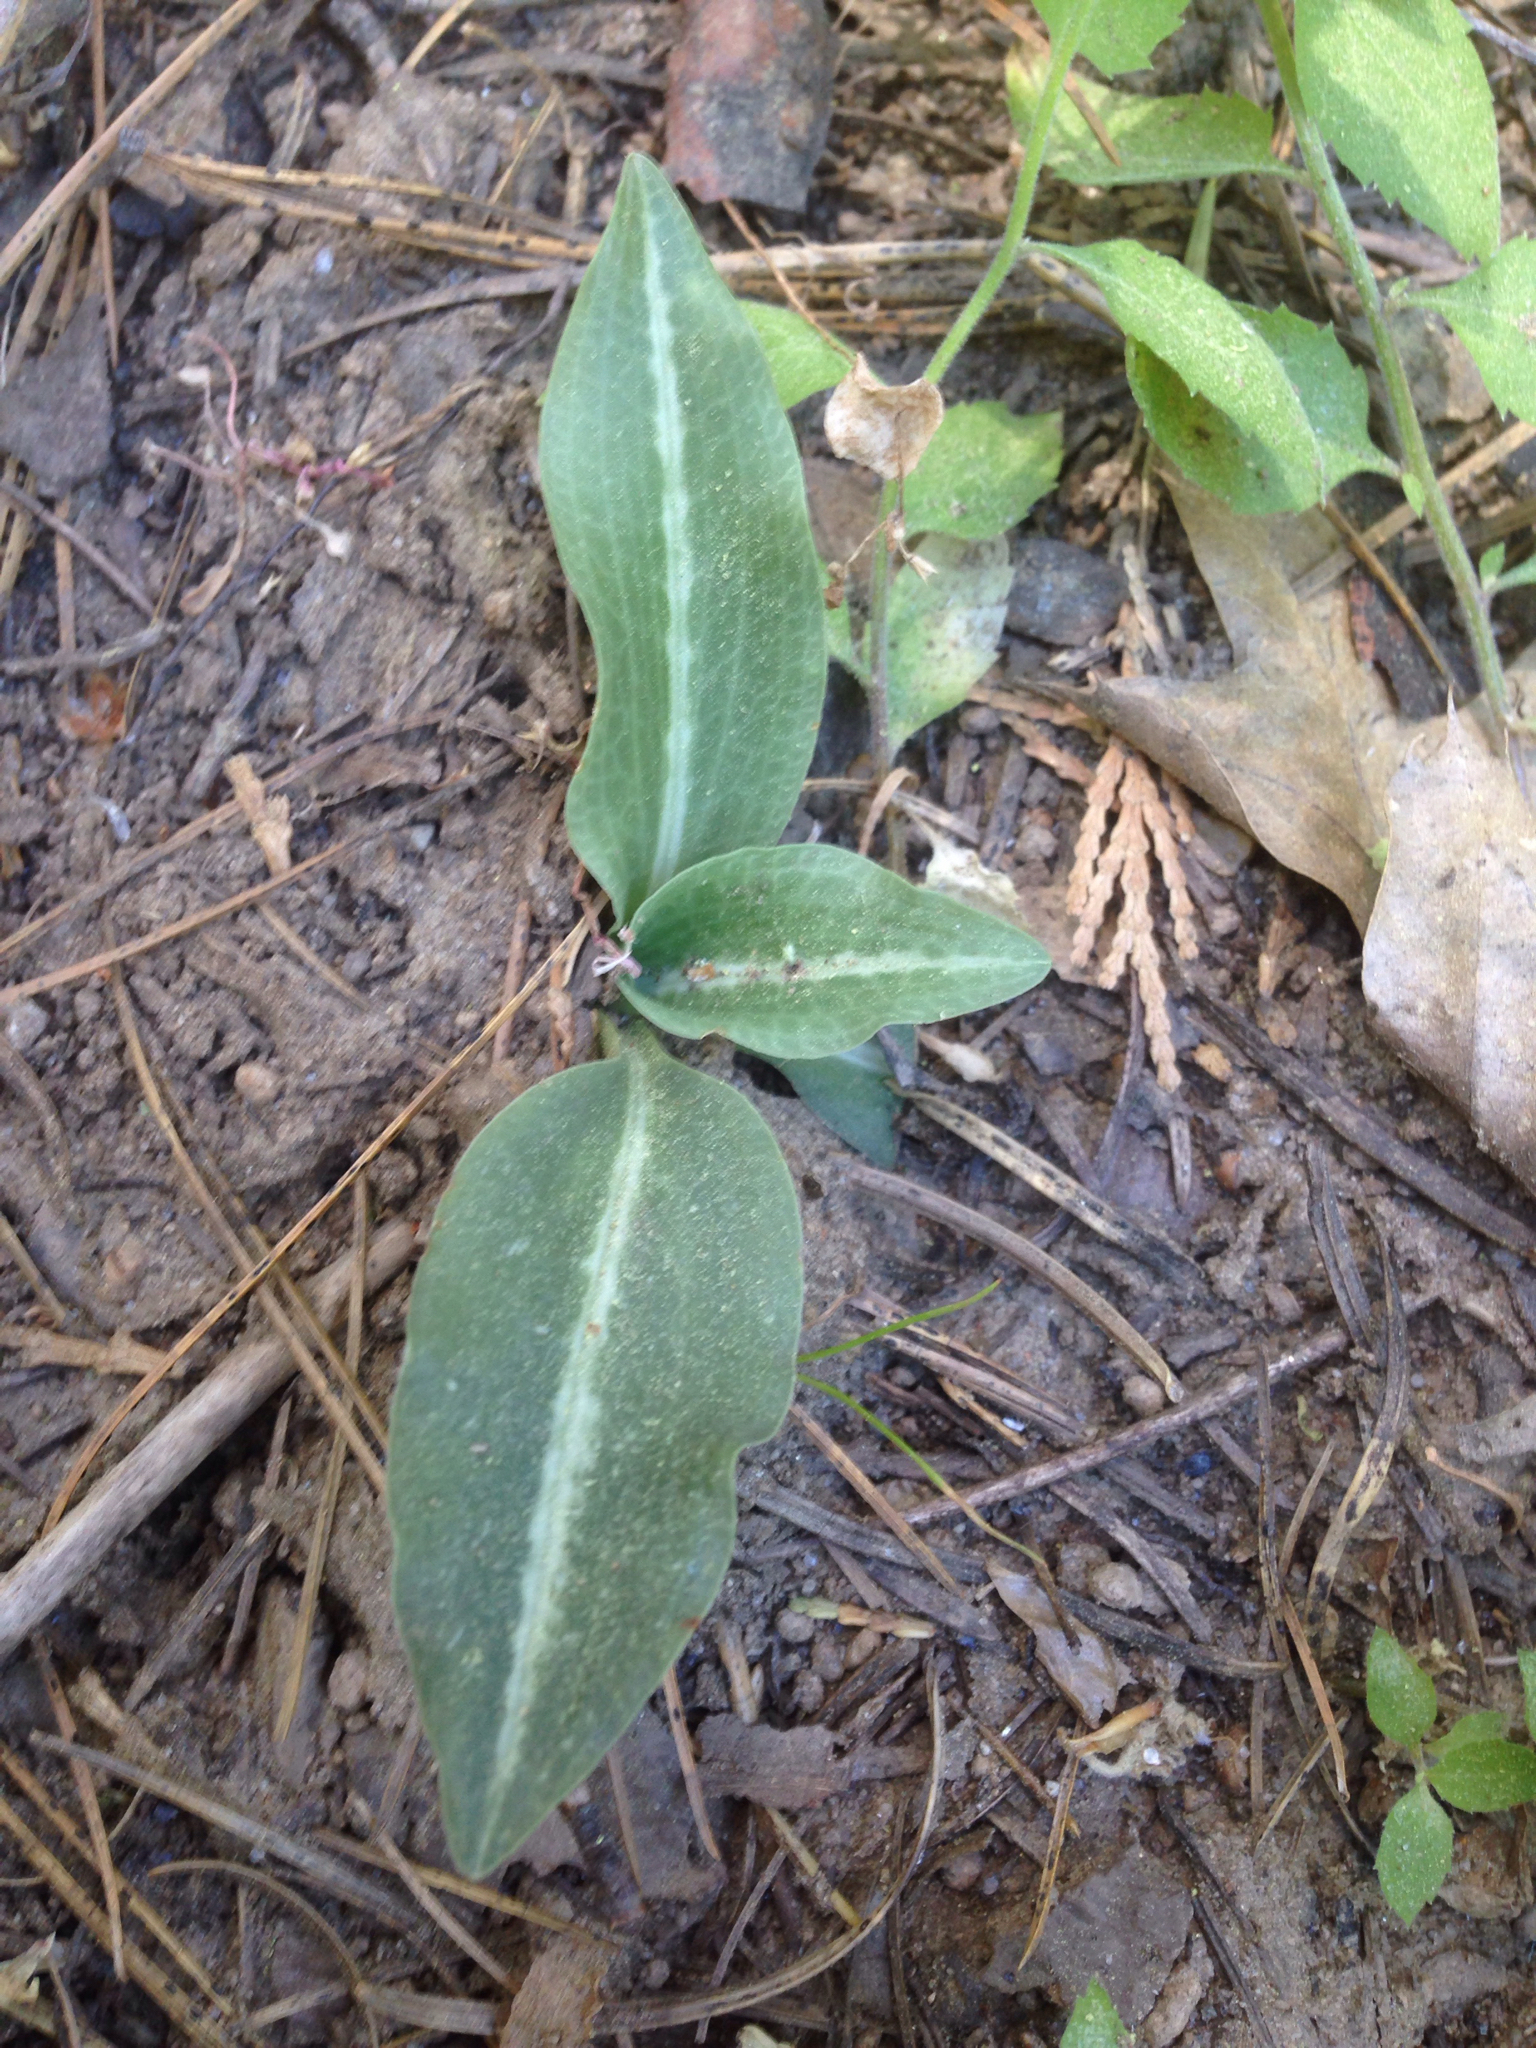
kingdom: Plantae
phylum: Tracheophyta
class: Liliopsida
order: Asparagales
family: Orchidaceae
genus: Goodyera
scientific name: Goodyera oblongifolia
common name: Giant rattlesnake-plantain
